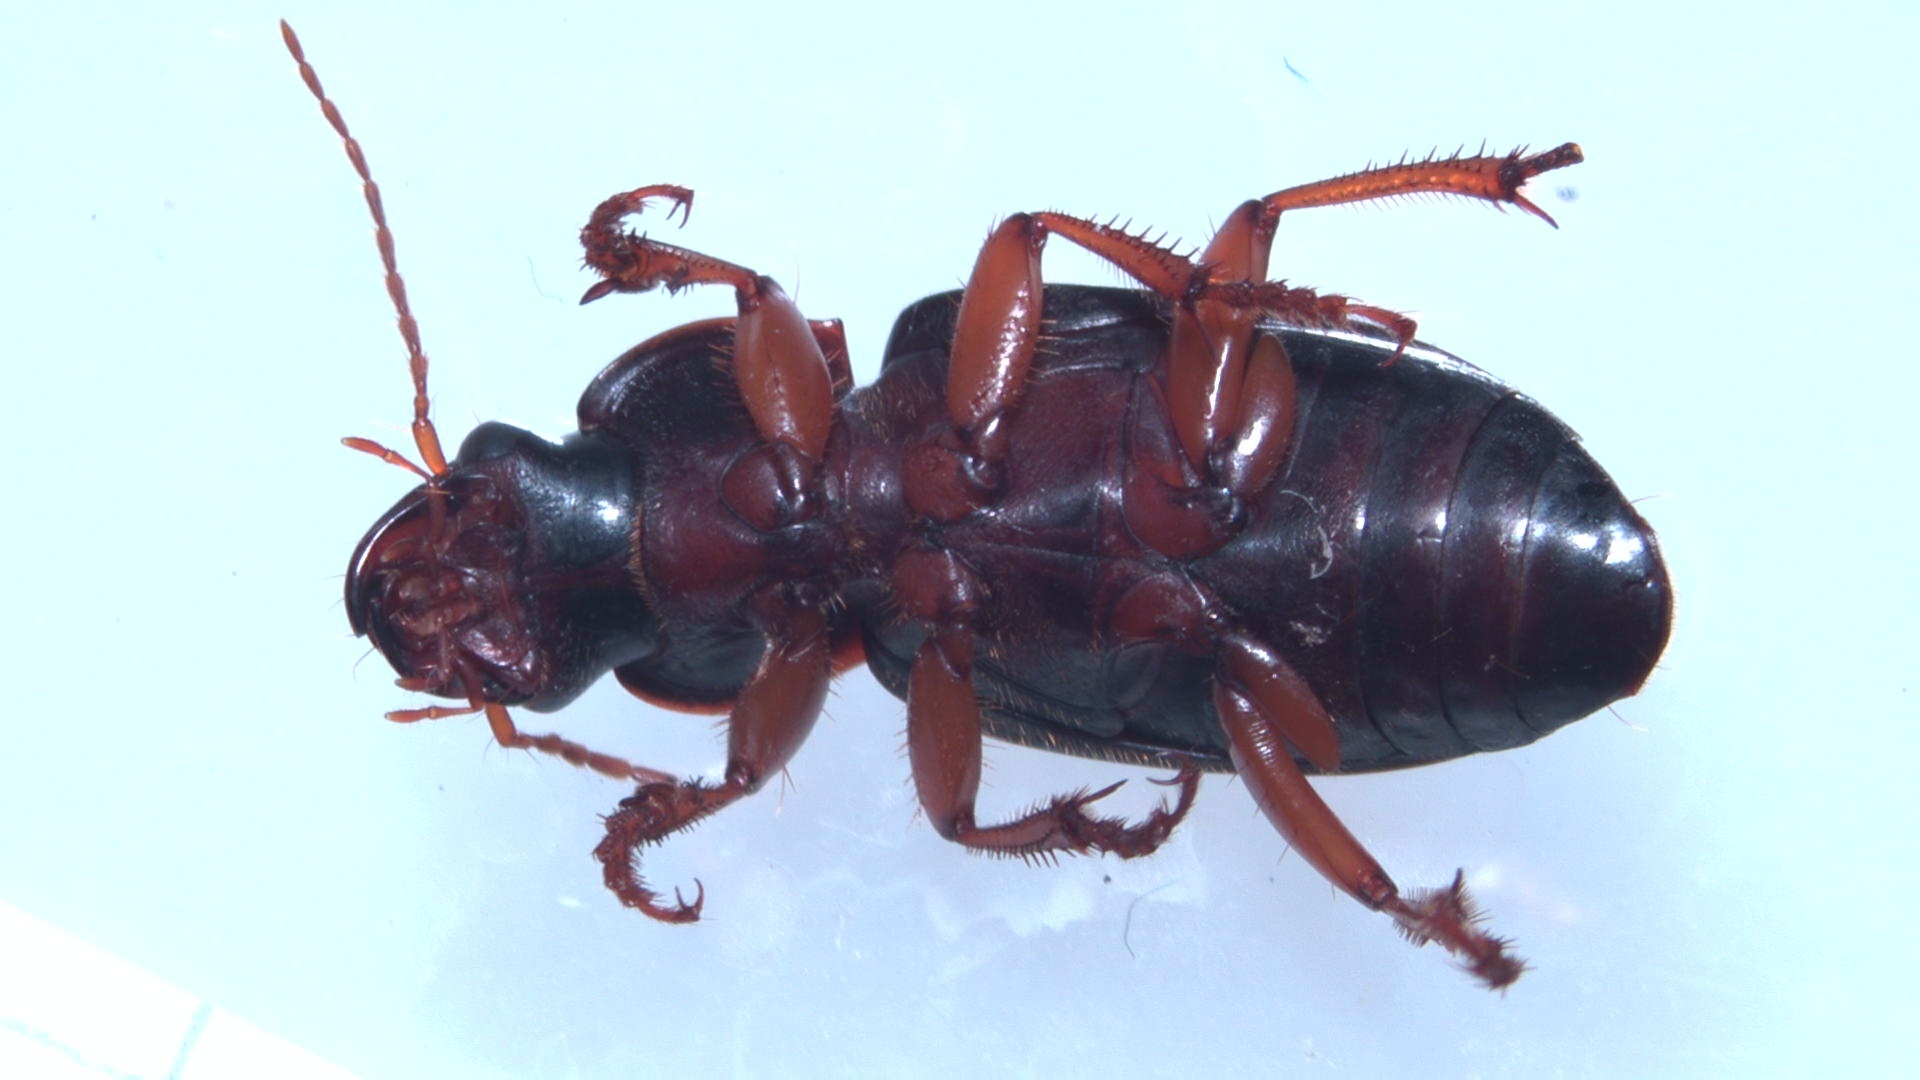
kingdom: Animalia
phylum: Arthropoda
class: Insecta
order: Coleoptera
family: Carabidae
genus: Harpalus
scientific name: Harpalus rufipes
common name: Strawberry harp ground beetle
